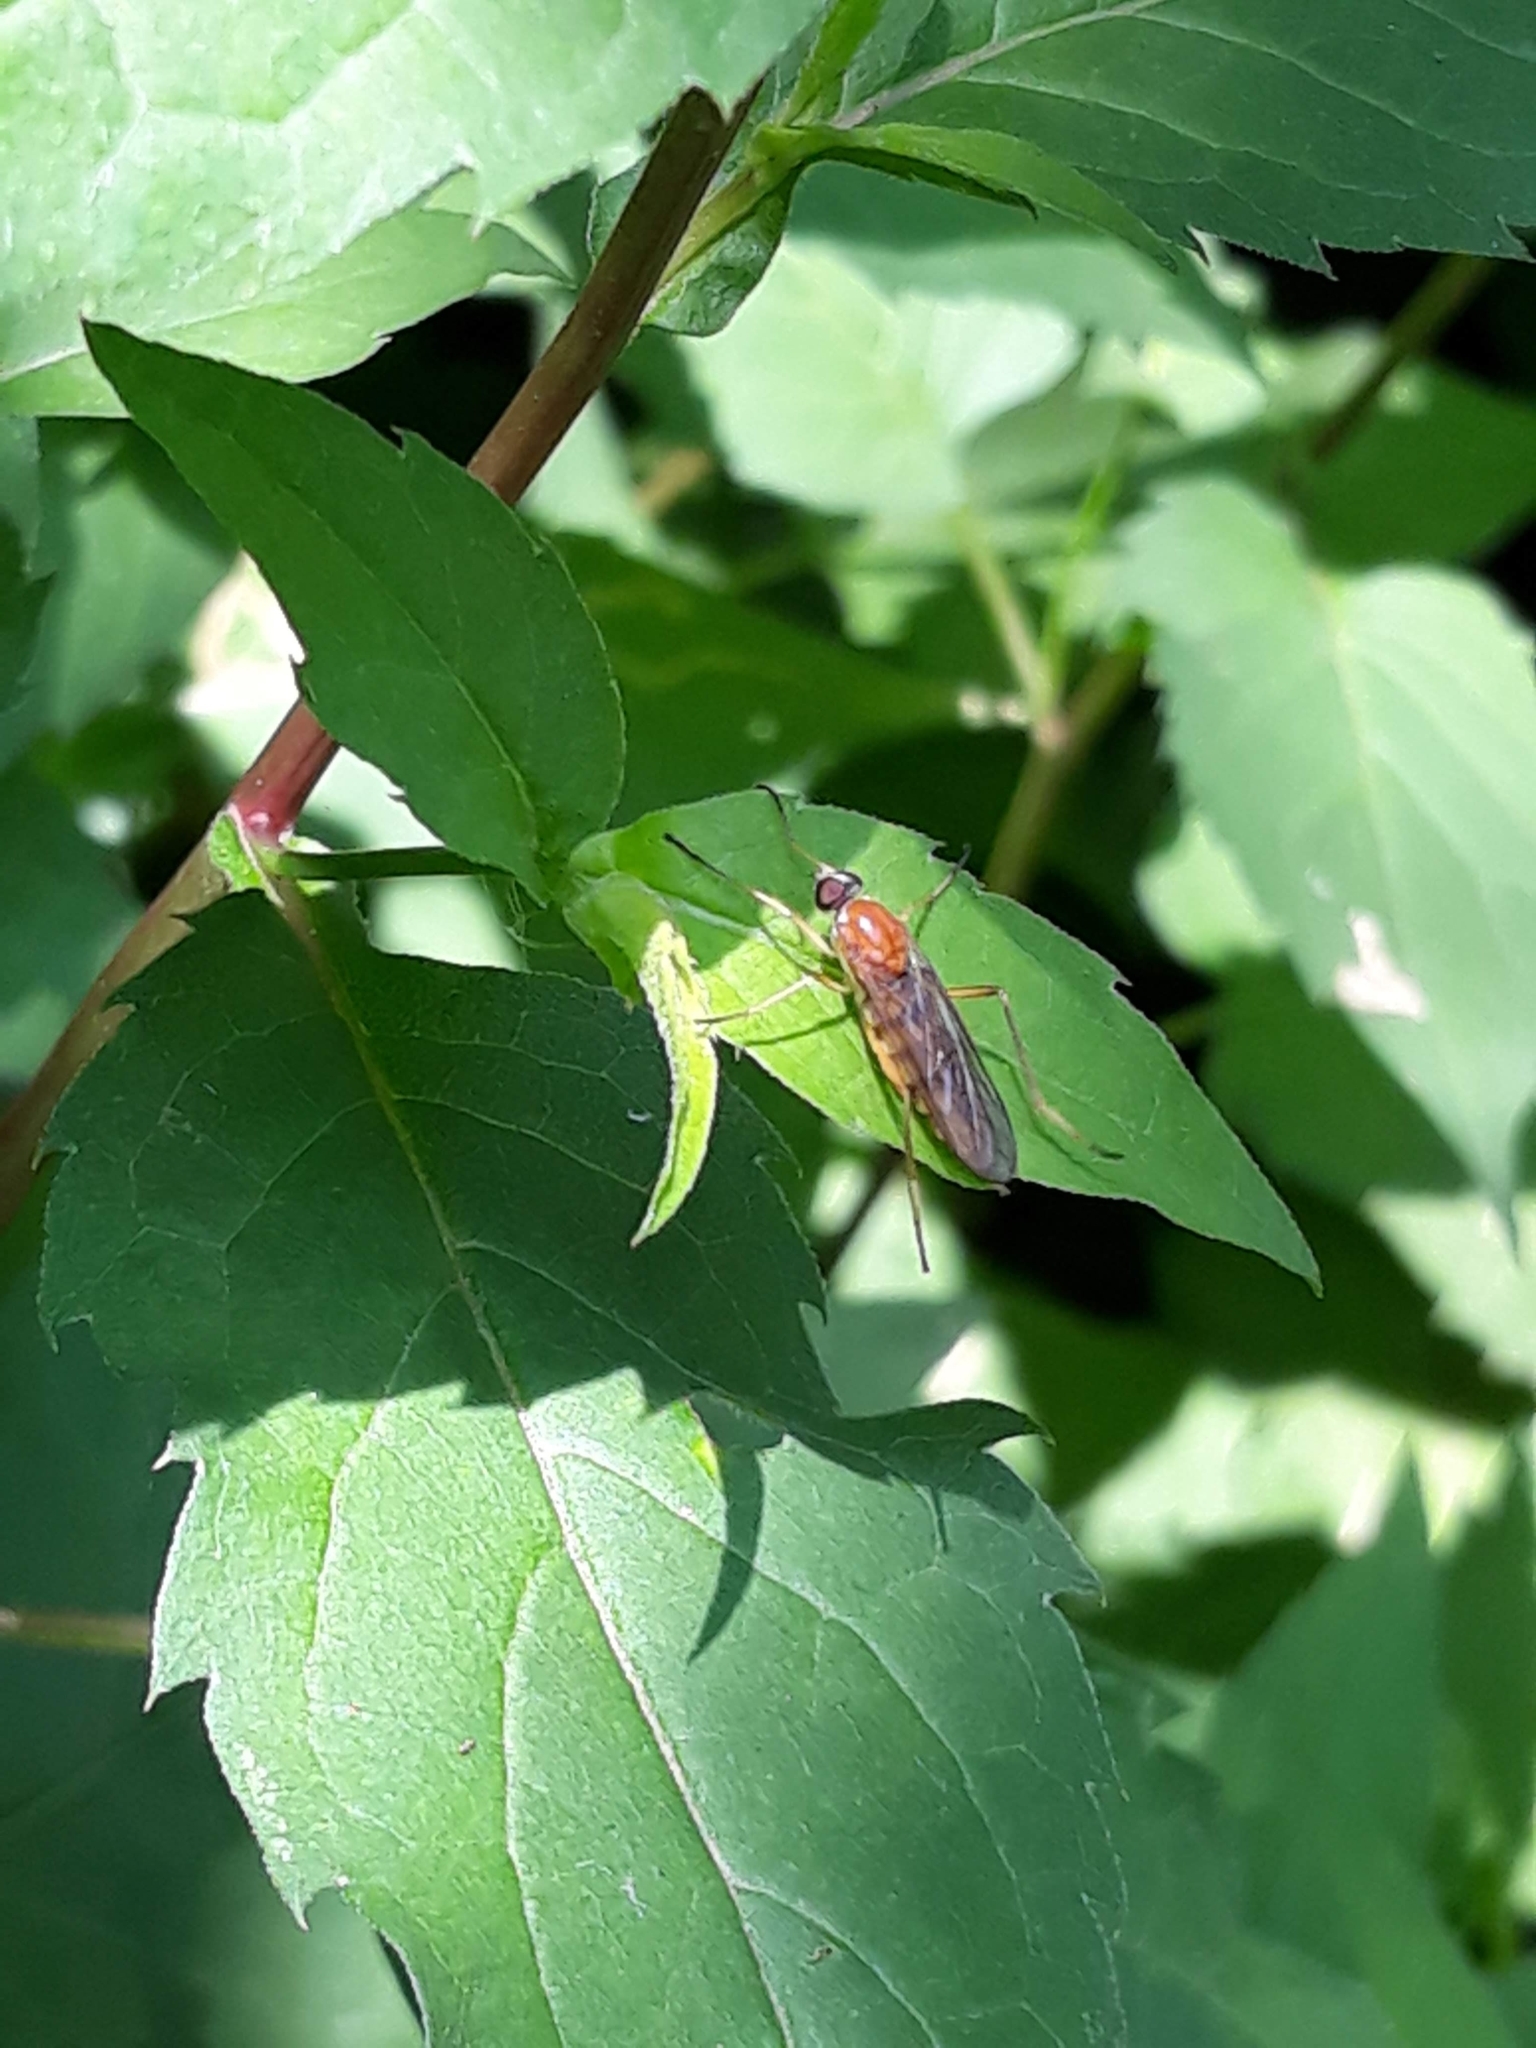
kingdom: Animalia
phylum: Arthropoda
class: Insecta
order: Diptera
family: Xylophagidae
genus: Dialysis
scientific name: Dialysis elongata
